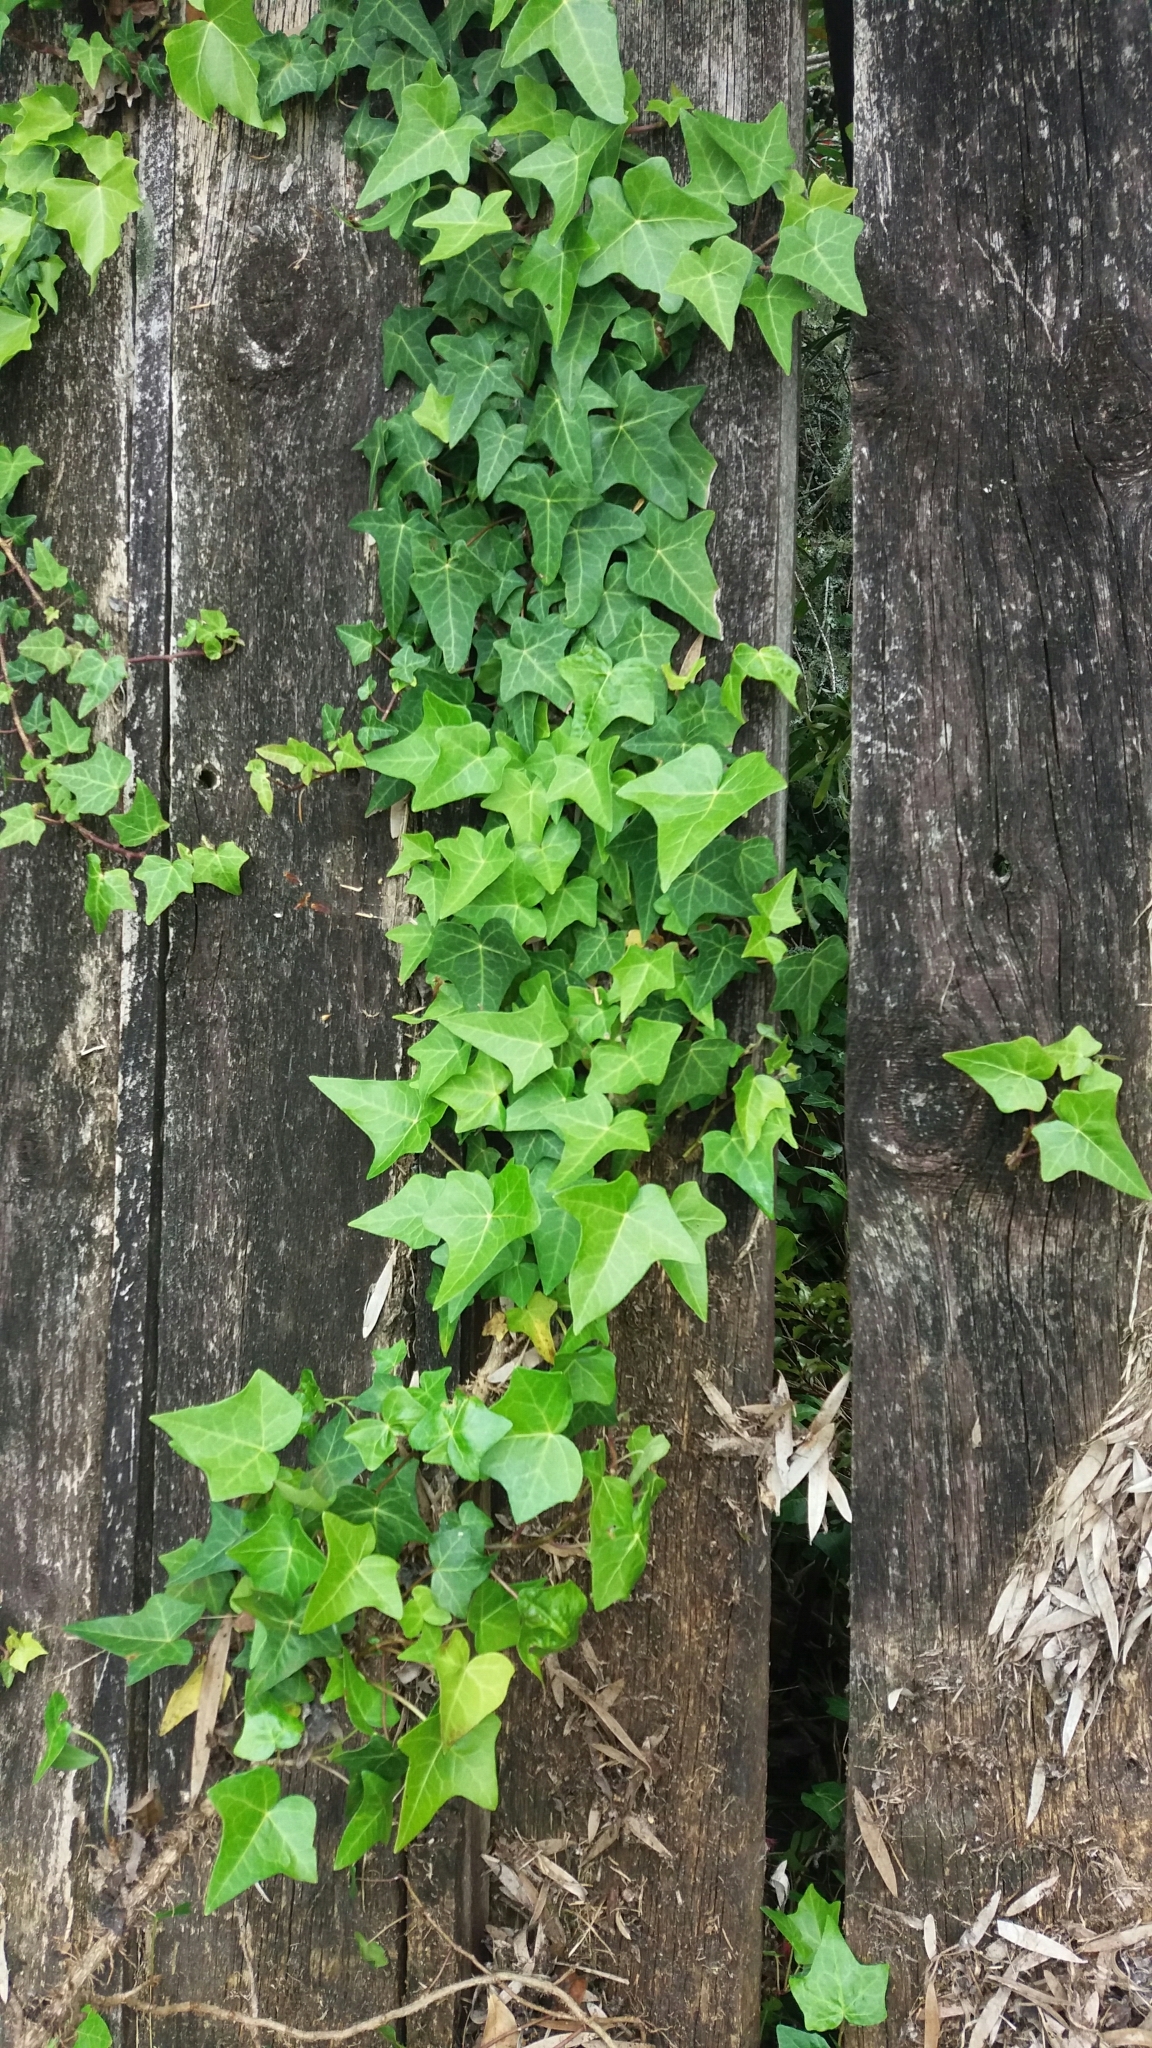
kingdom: Plantae
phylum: Tracheophyta
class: Magnoliopsida
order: Apiales
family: Araliaceae
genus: Hedera
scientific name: Hedera helix
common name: Ivy
